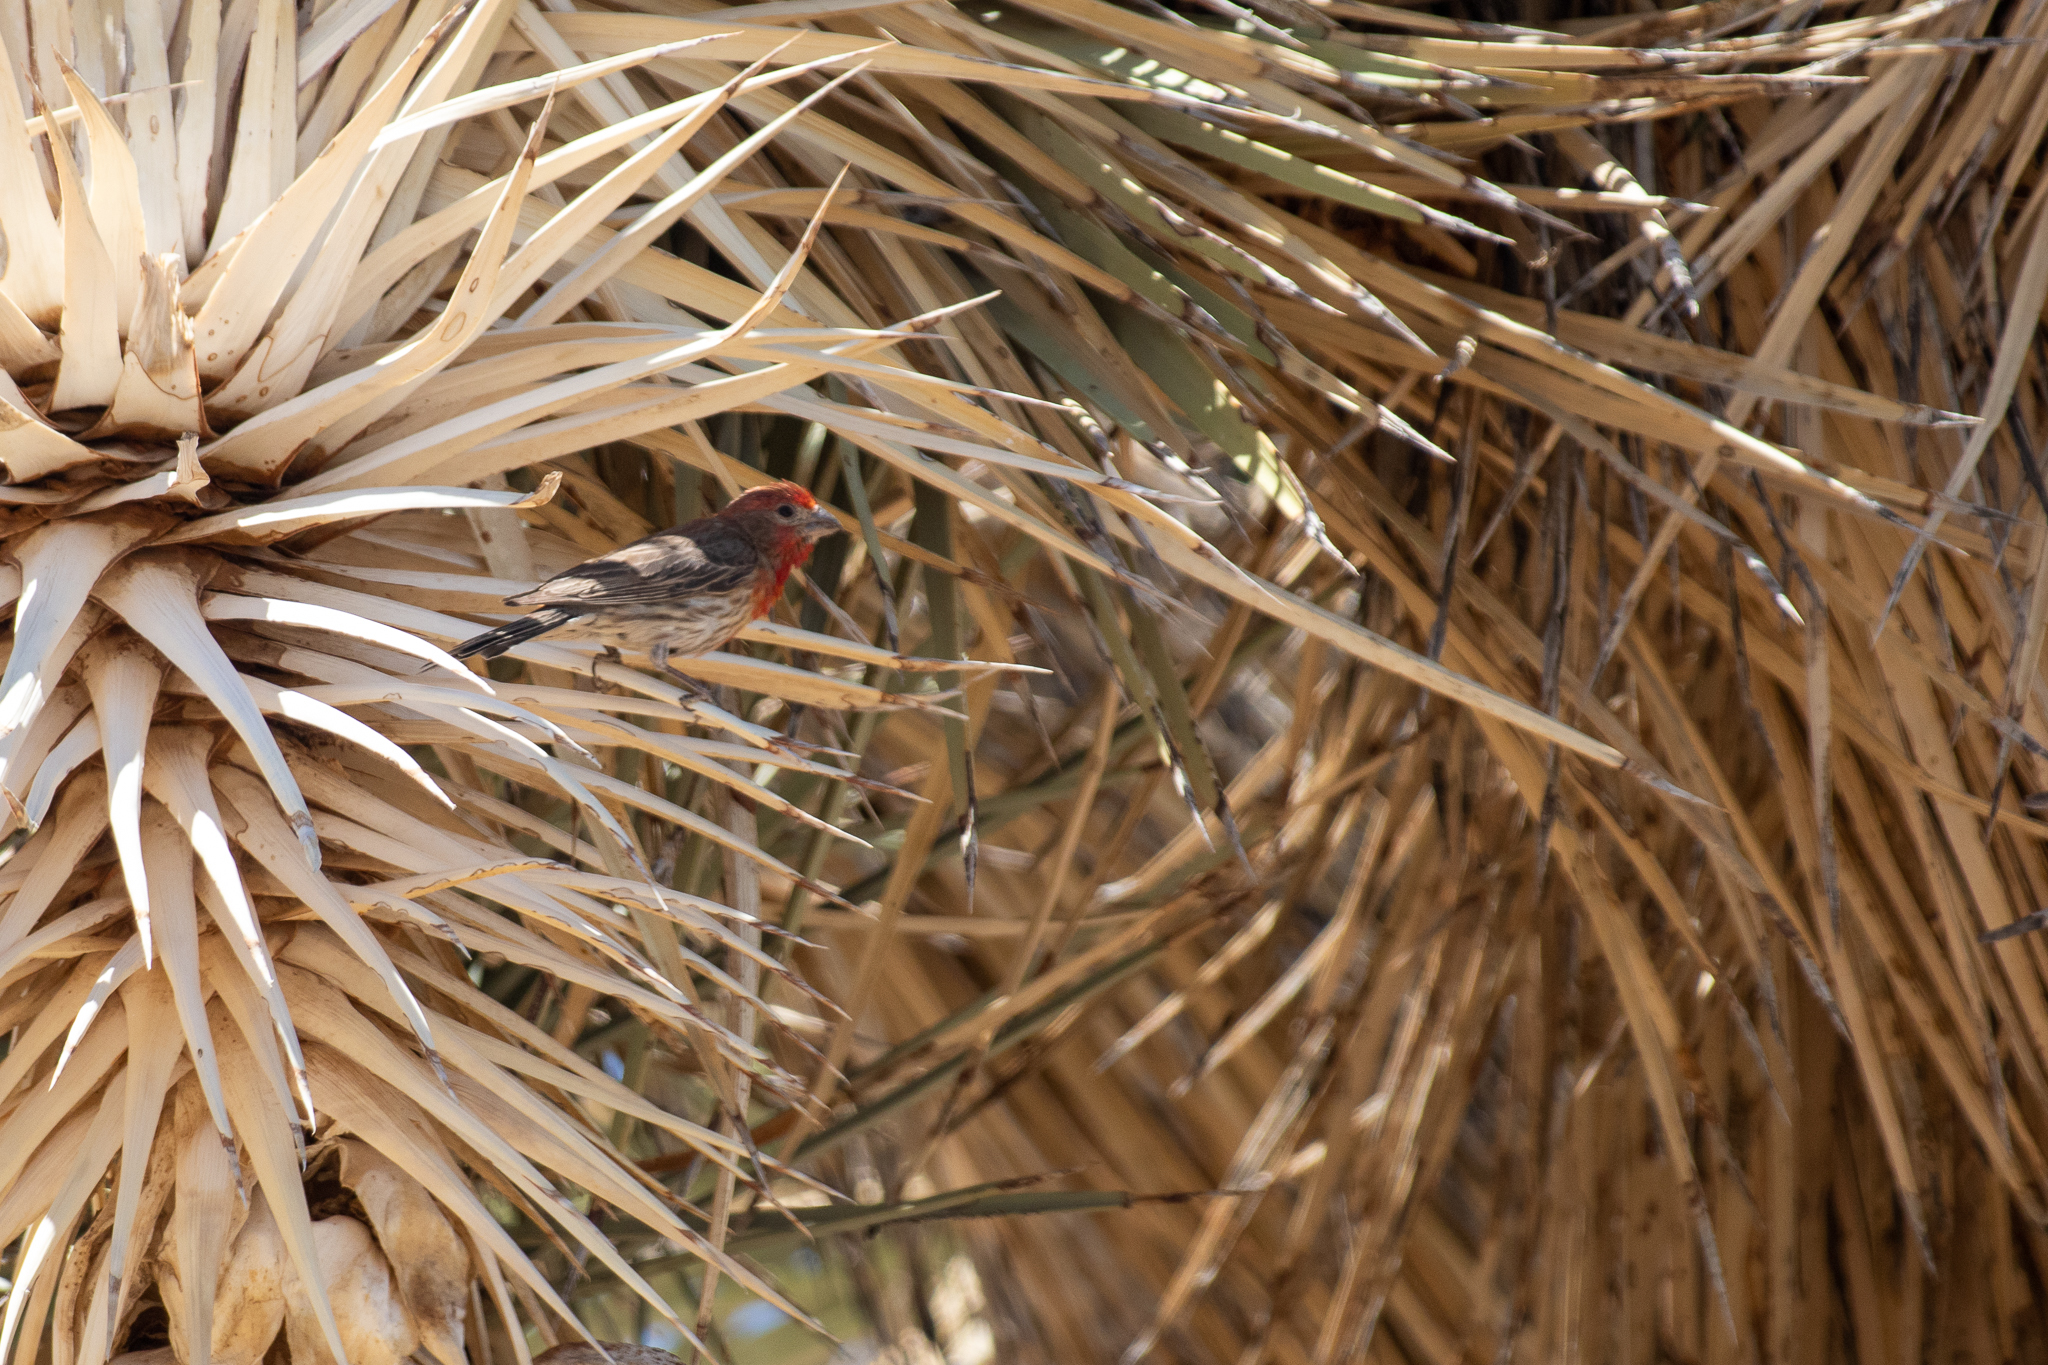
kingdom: Animalia
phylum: Chordata
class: Aves
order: Passeriformes
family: Fringillidae
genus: Haemorhous
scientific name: Haemorhous mexicanus
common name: House finch
